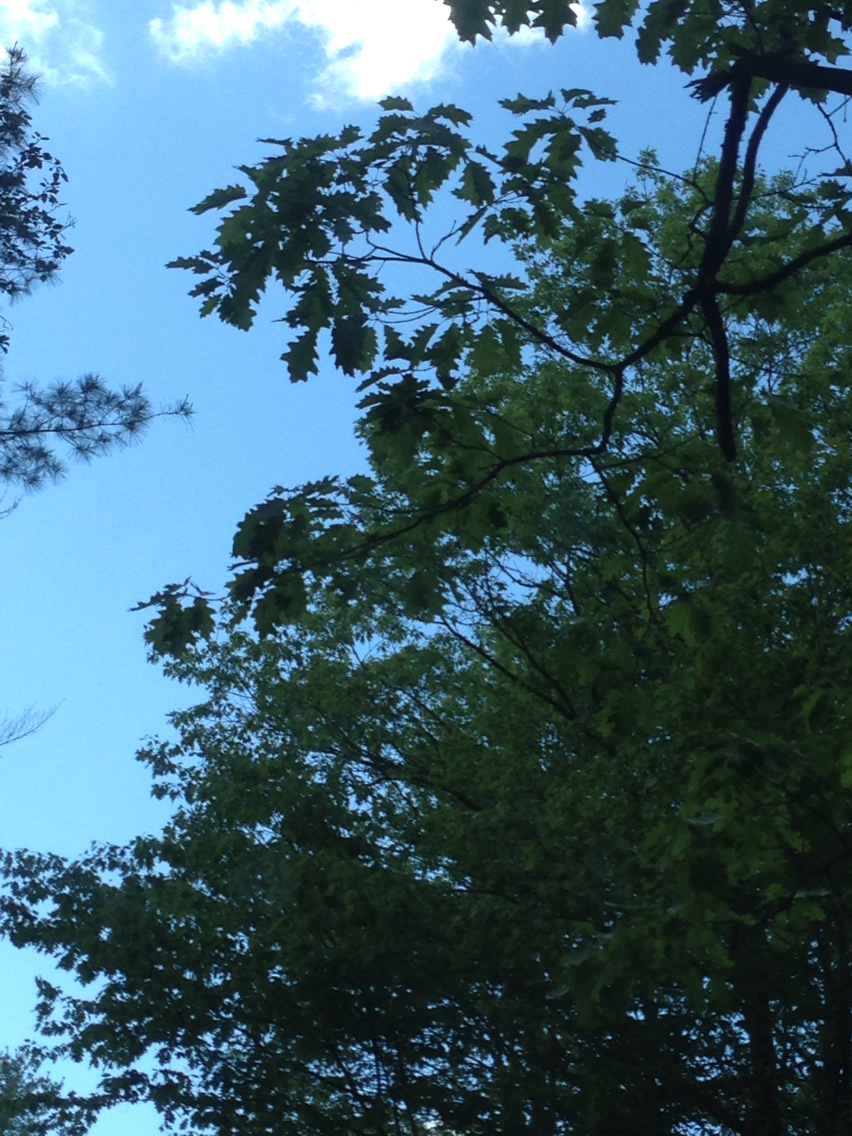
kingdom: Plantae
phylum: Tracheophyta
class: Magnoliopsida
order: Fagales
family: Fagaceae
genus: Quercus
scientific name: Quercus rubra
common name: Red oak
